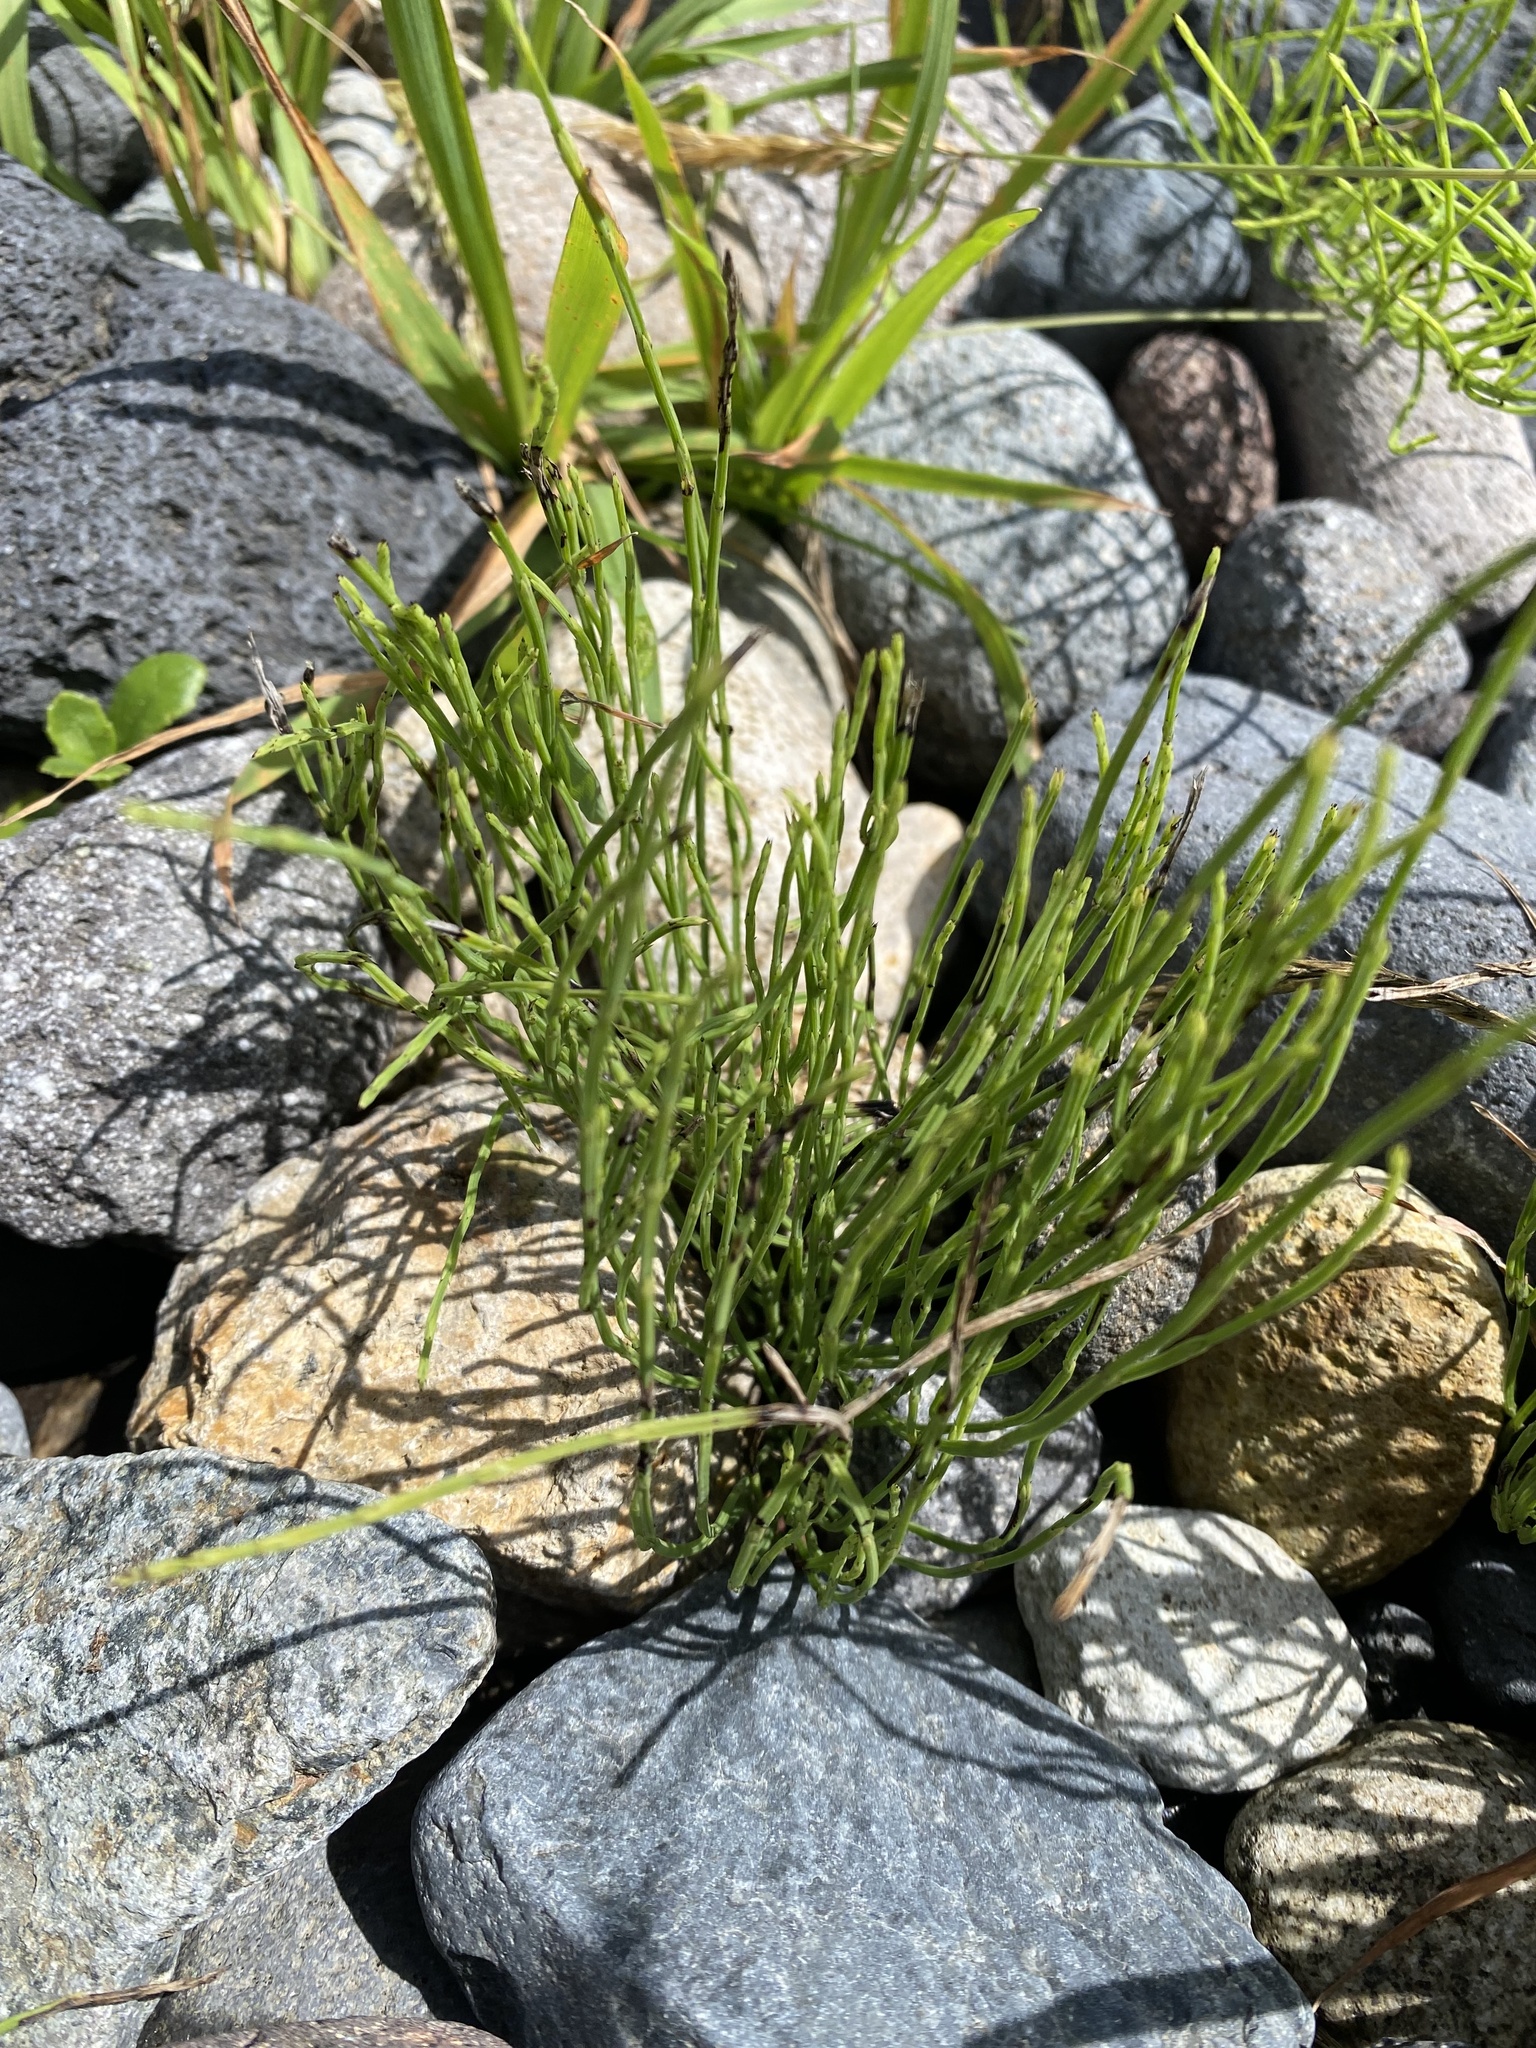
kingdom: Plantae
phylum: Tracheophyta
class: Polypodiopsida
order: Equisetales
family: Equisetaceae
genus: Equisetum
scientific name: Equisetum arvense
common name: Field horsetail
